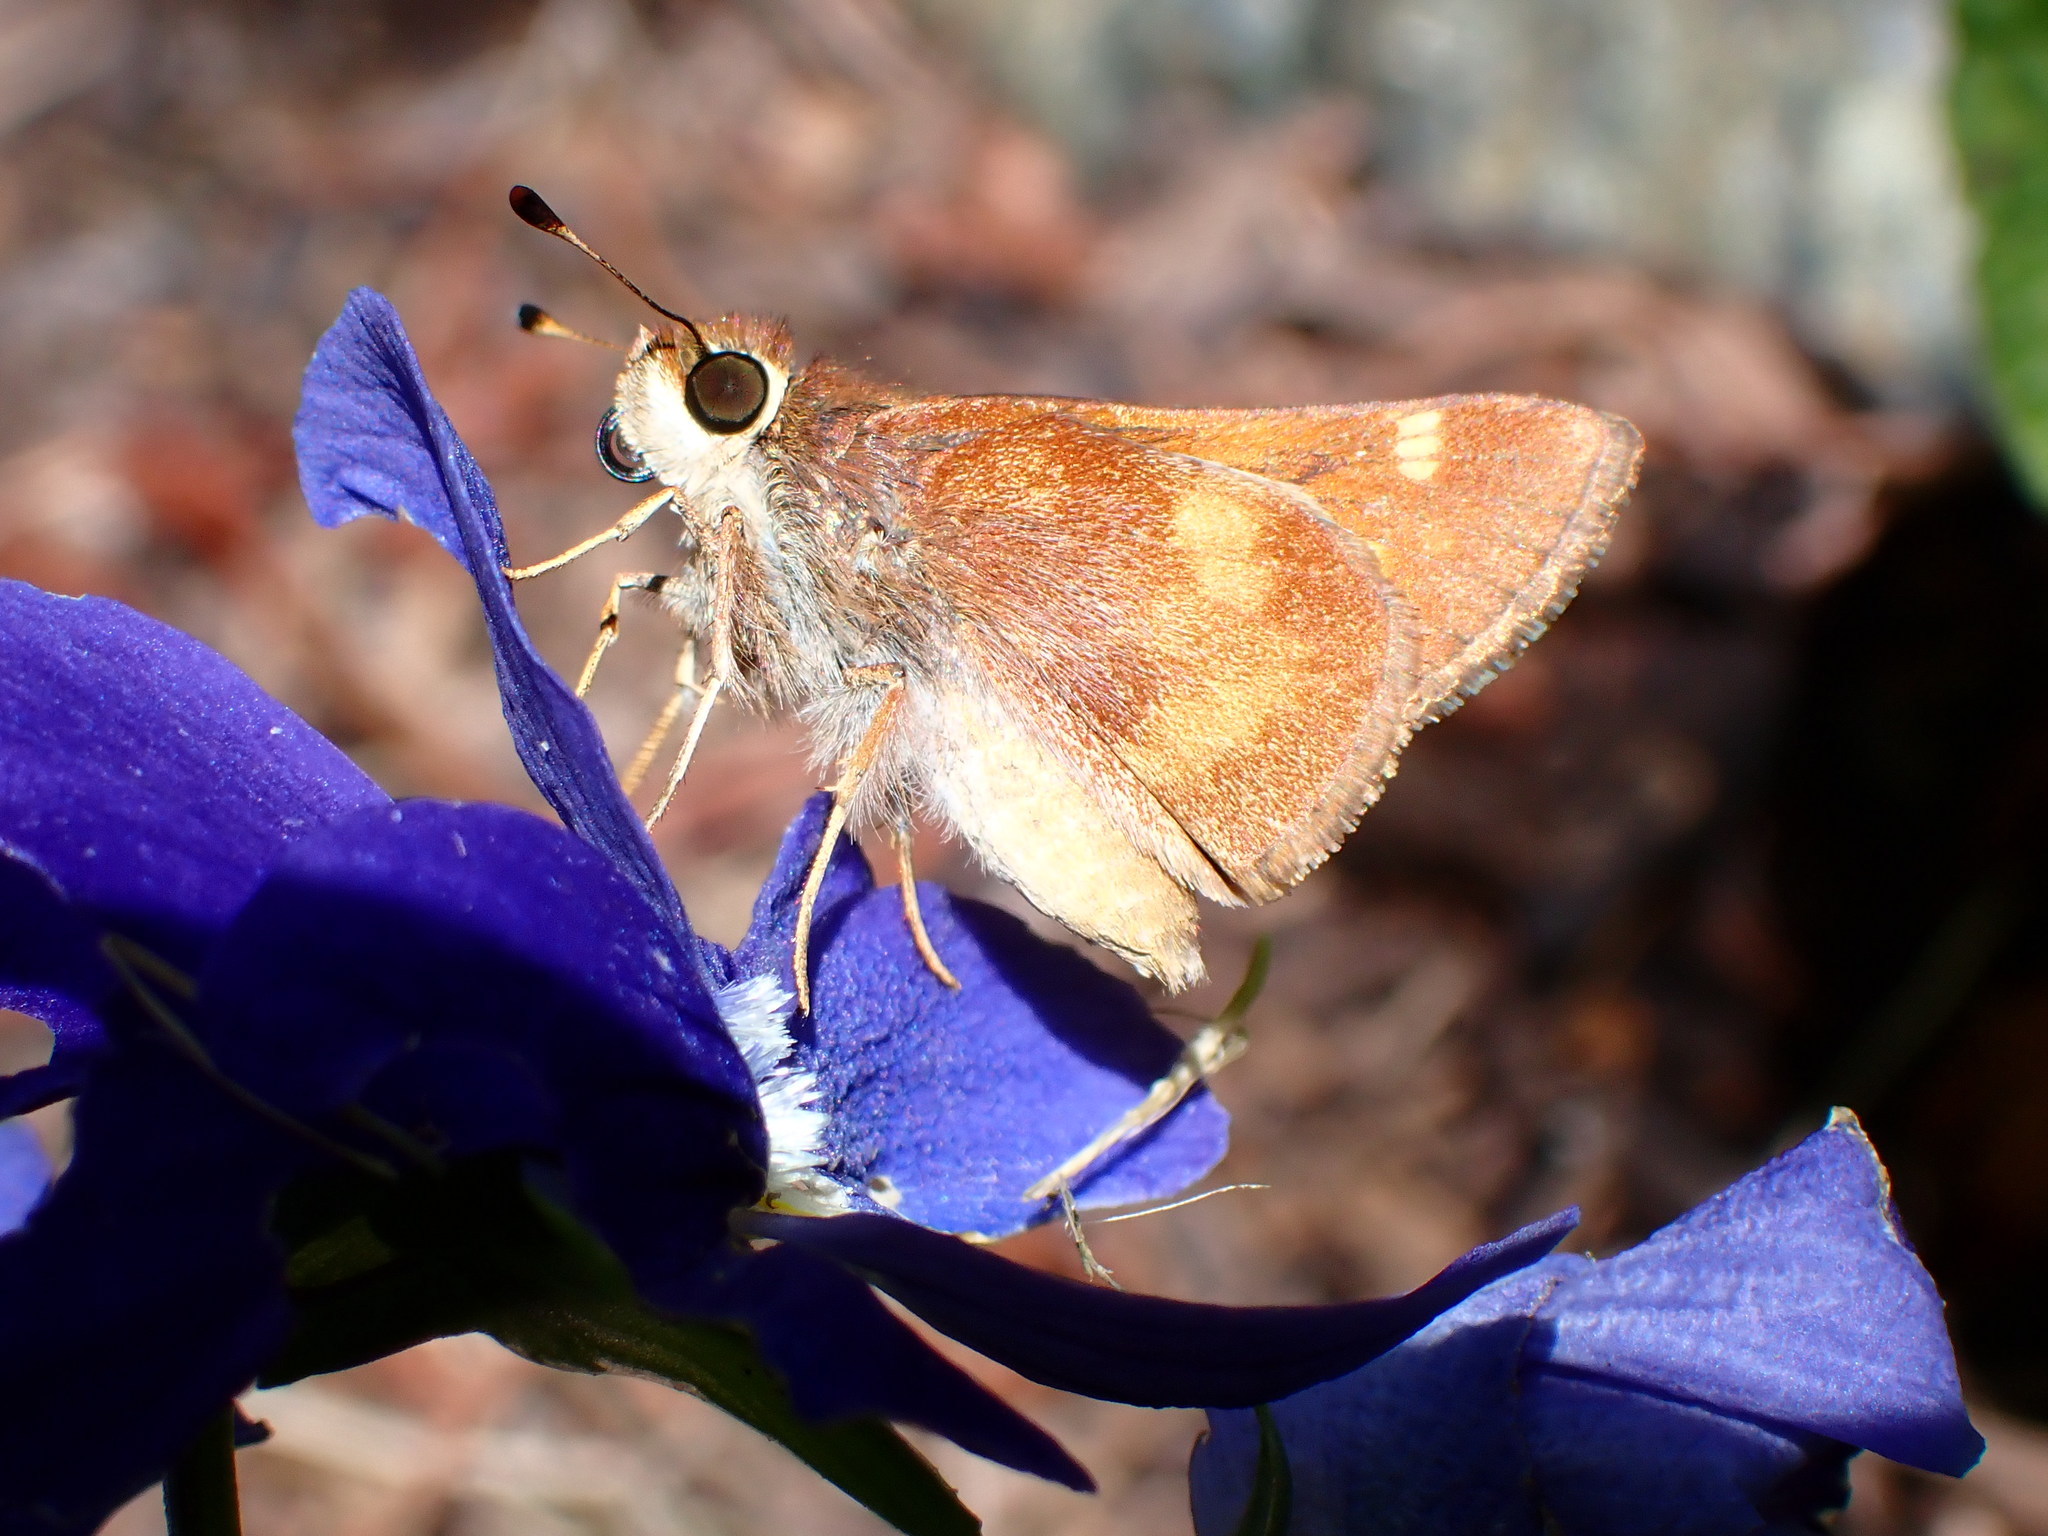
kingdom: Animalia
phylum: Arthropoda
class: Insecta
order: Lepidoptera
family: Hesperiidae
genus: Lon
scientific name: Lon melane
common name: Umber skipper
